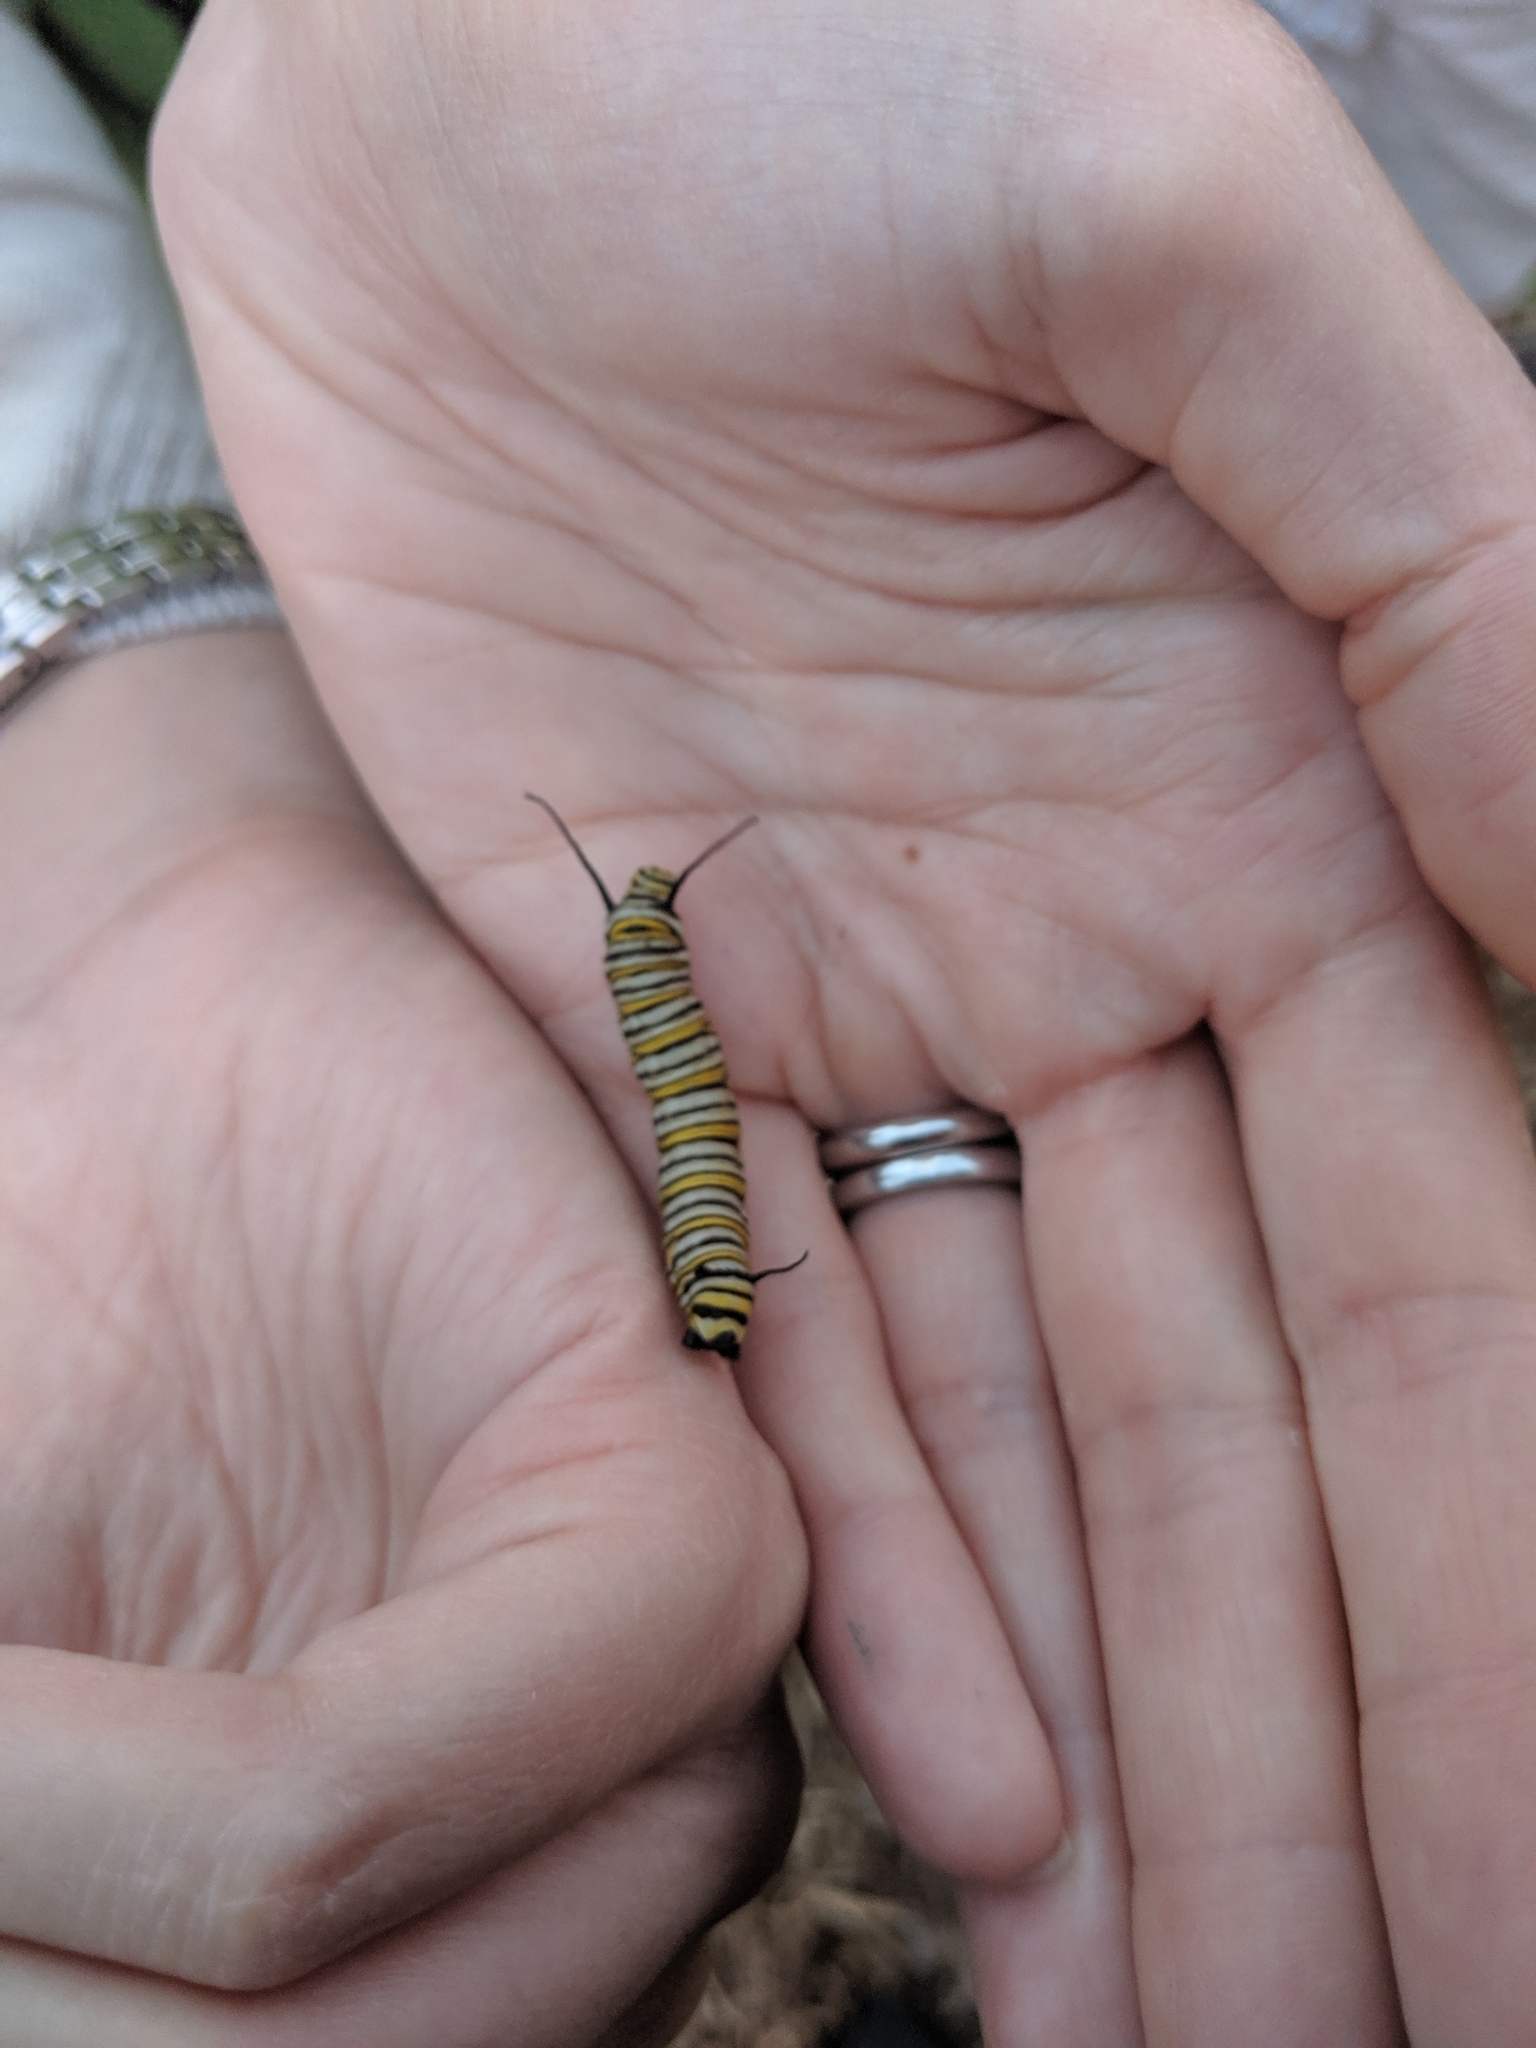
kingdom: Animalia
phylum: Arthropoda
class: Insecta
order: Lepidoptera
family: Nymphalidae
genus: Danaus
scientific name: Danaus plexippus
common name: Monarch
